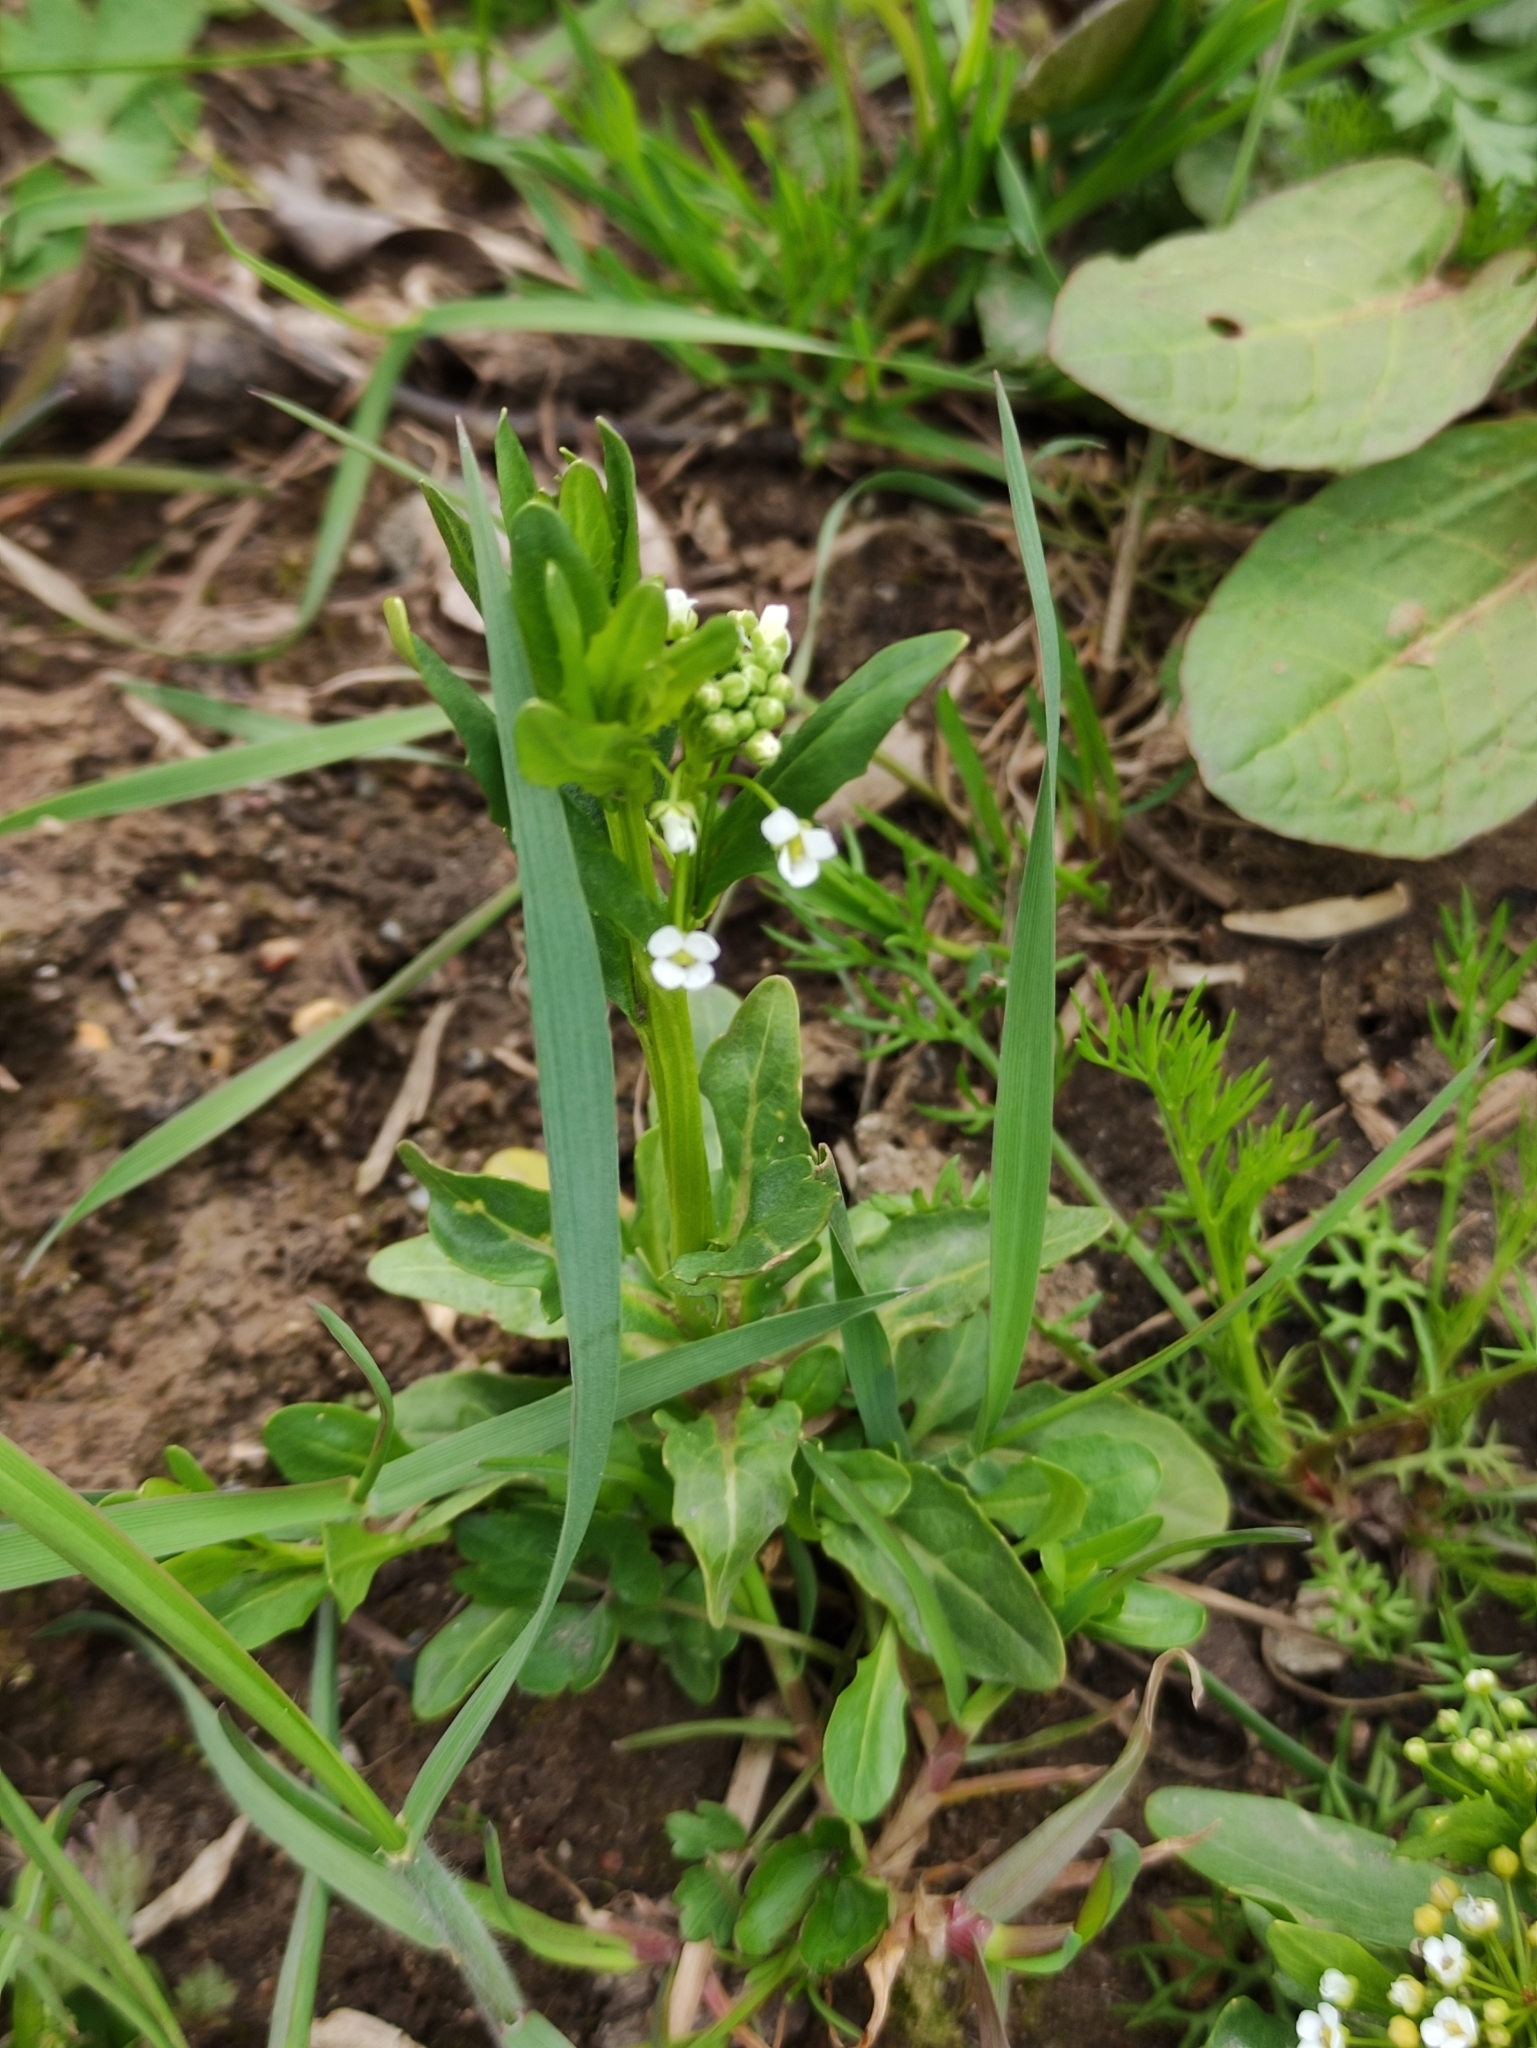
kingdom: Plantae
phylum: Tracheophyta
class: Magnoliopsida
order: Brassicales
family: Brassicaceae
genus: Thlaspi
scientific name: Thlaspi arvense
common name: Field pennycress
